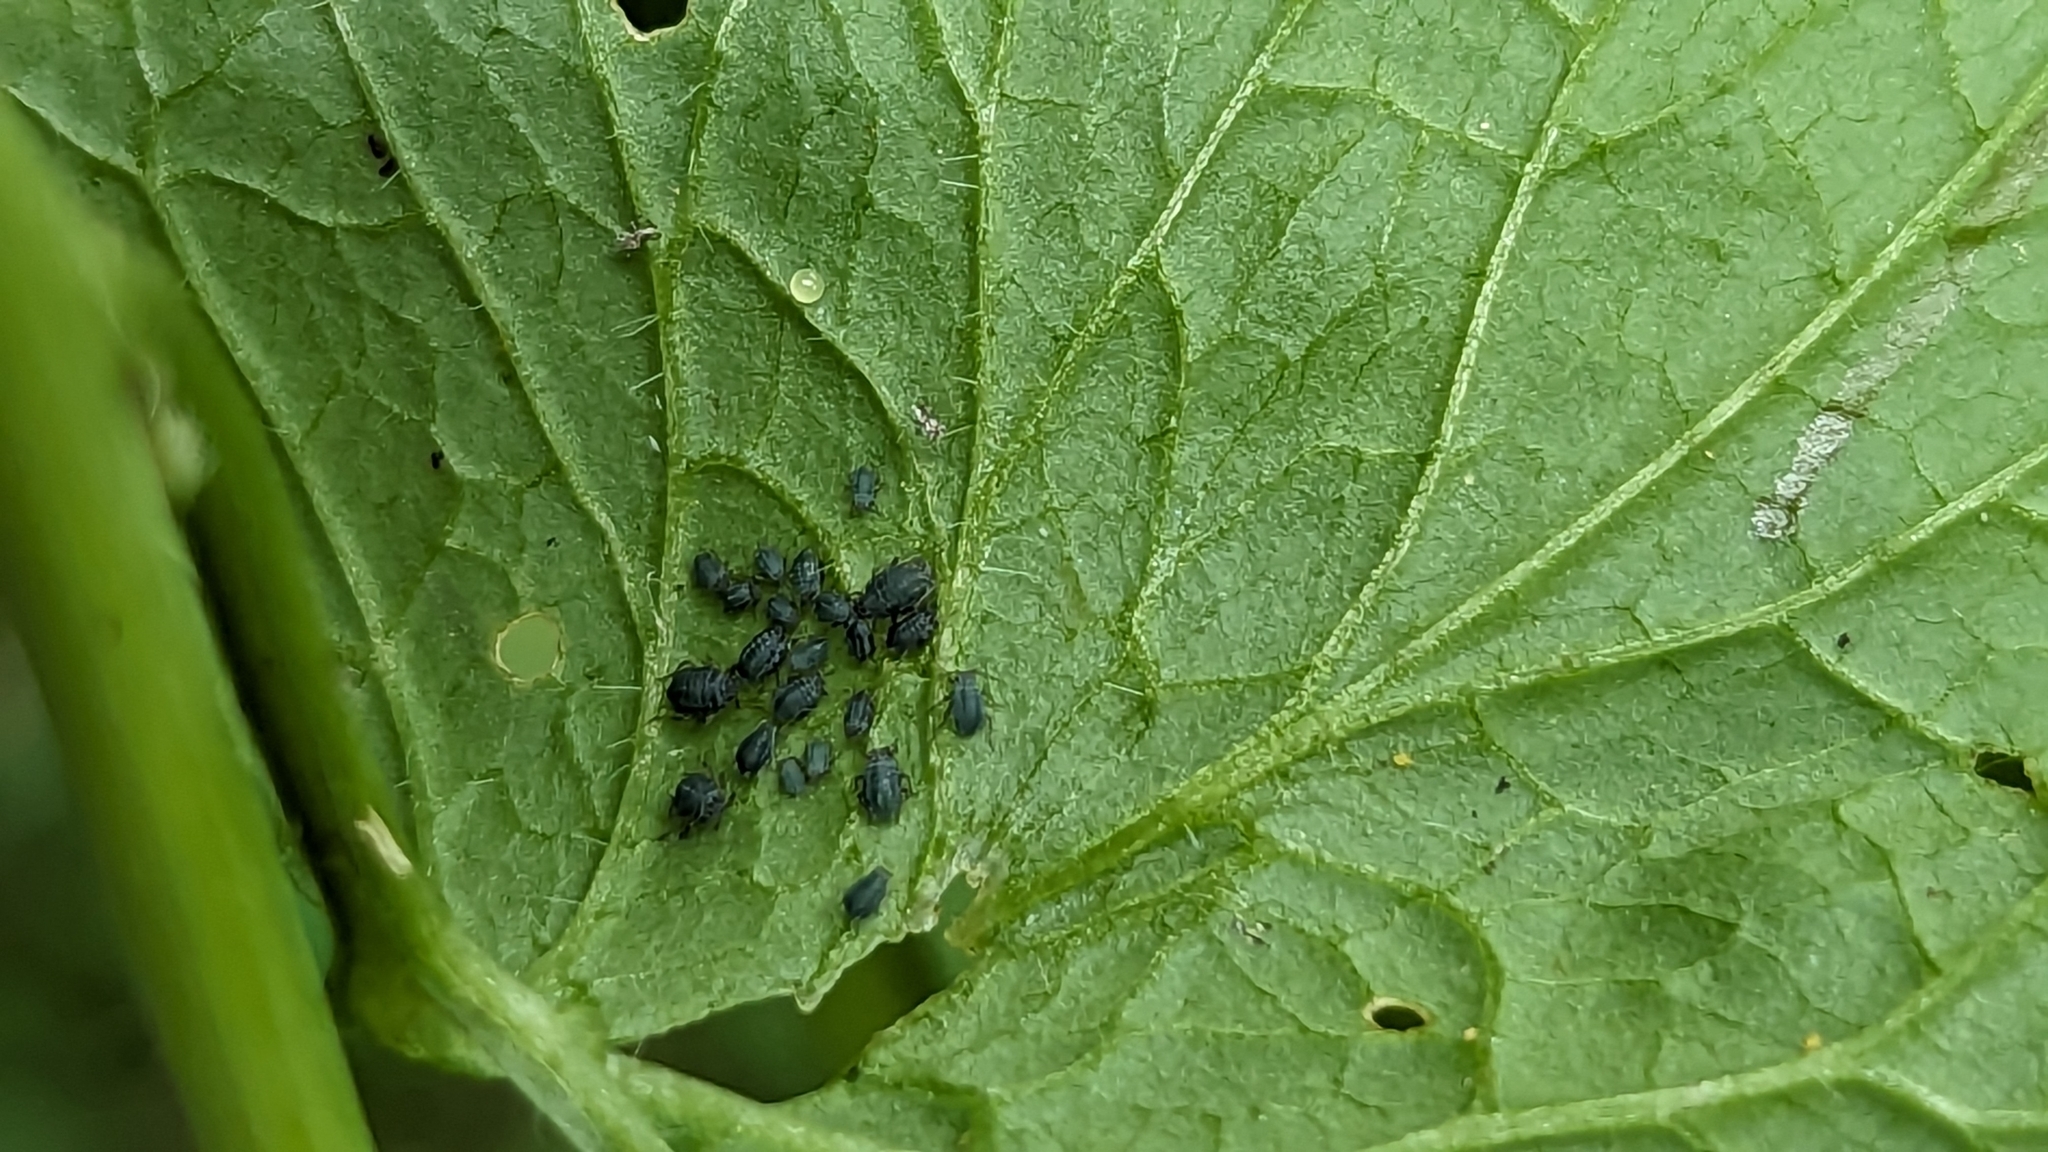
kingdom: Animalia
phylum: Arthropoda
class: Insecta
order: Hemiptera
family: Aphididae
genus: Lipaphis
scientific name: Lipaphis alliariae
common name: Granade aphid
